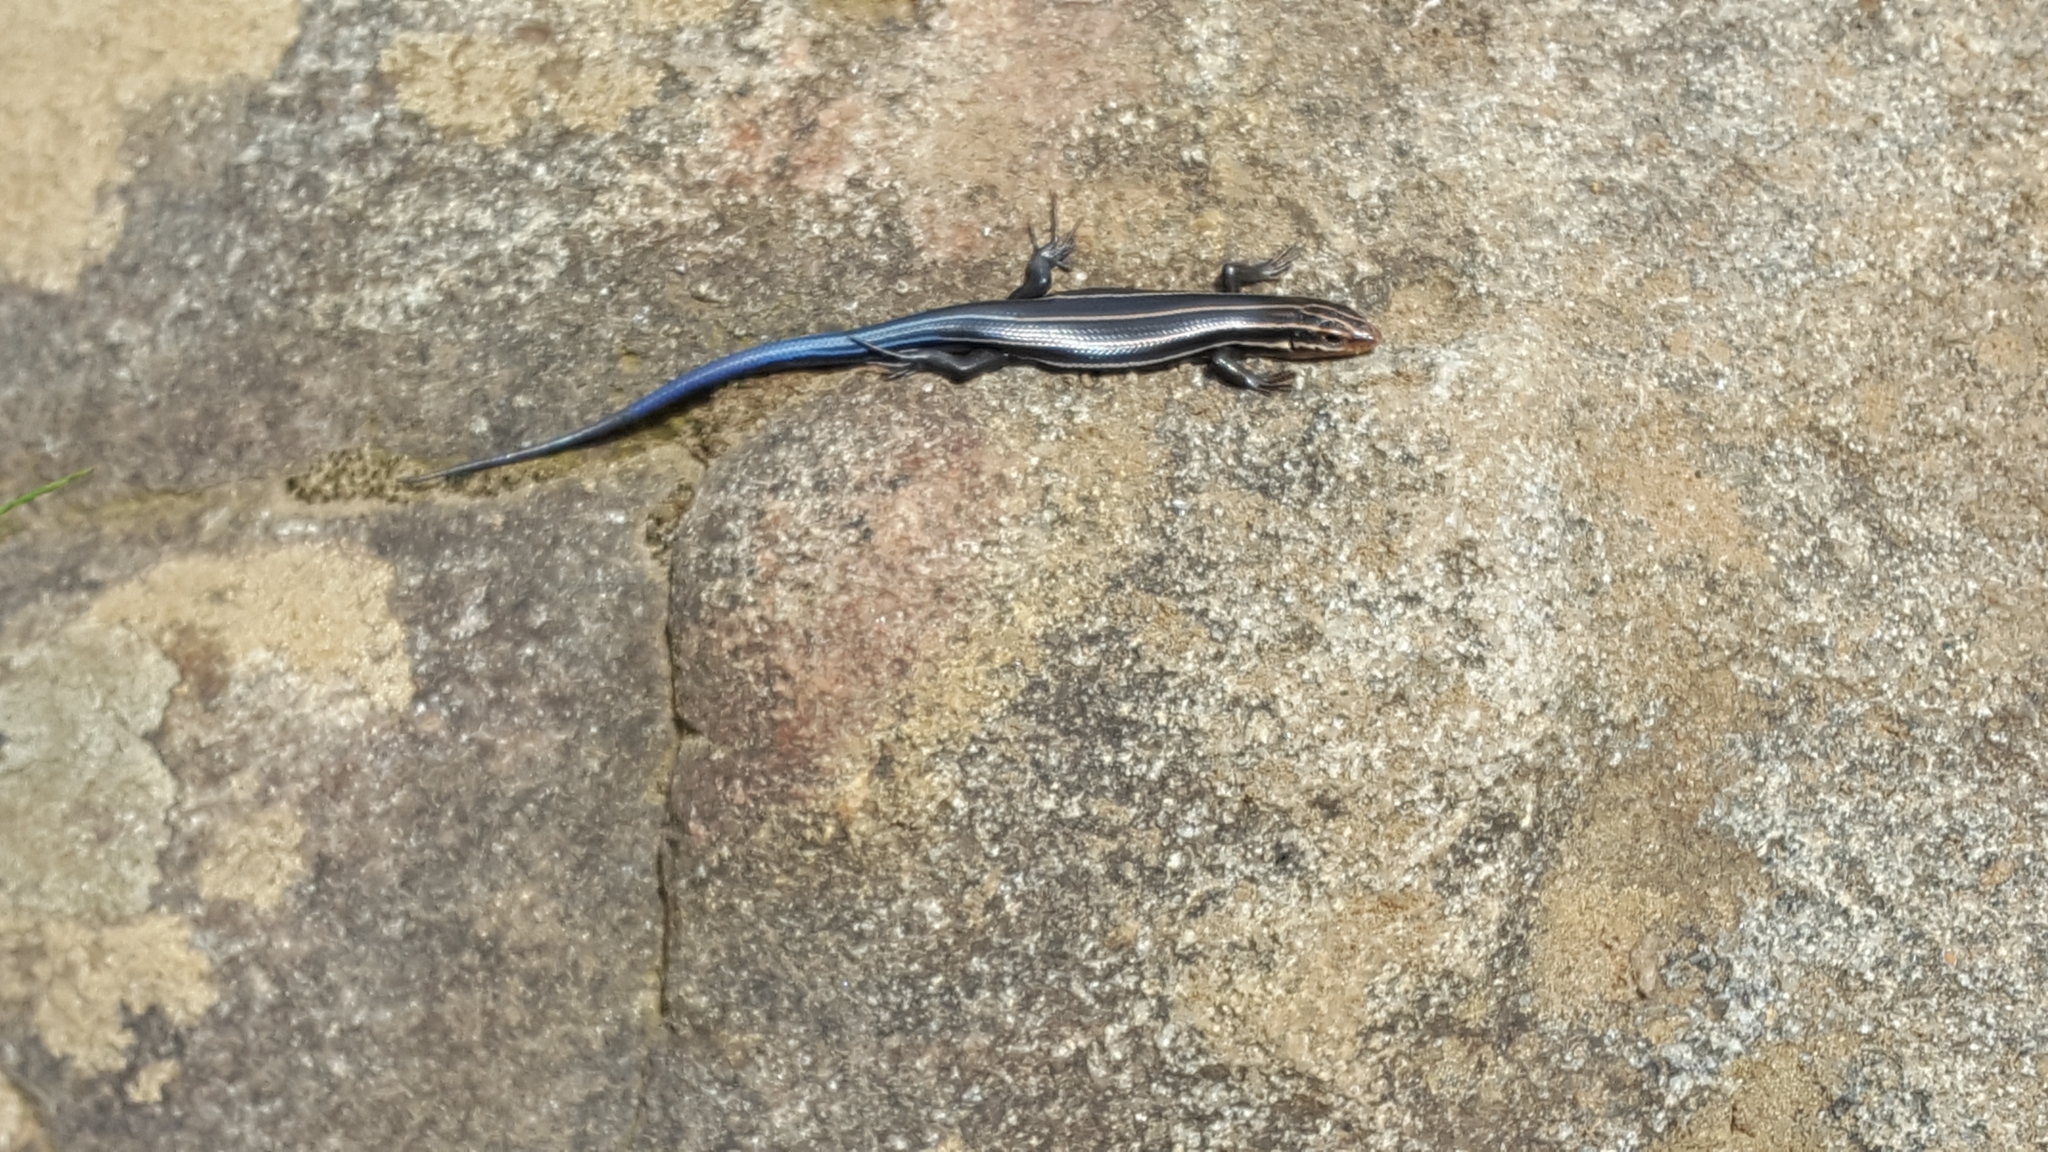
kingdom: Animalia
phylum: Chordata
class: Squamata
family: Scincidae
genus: Plestiodon
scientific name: Plestiodon fasciatus
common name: Five-lined skink
